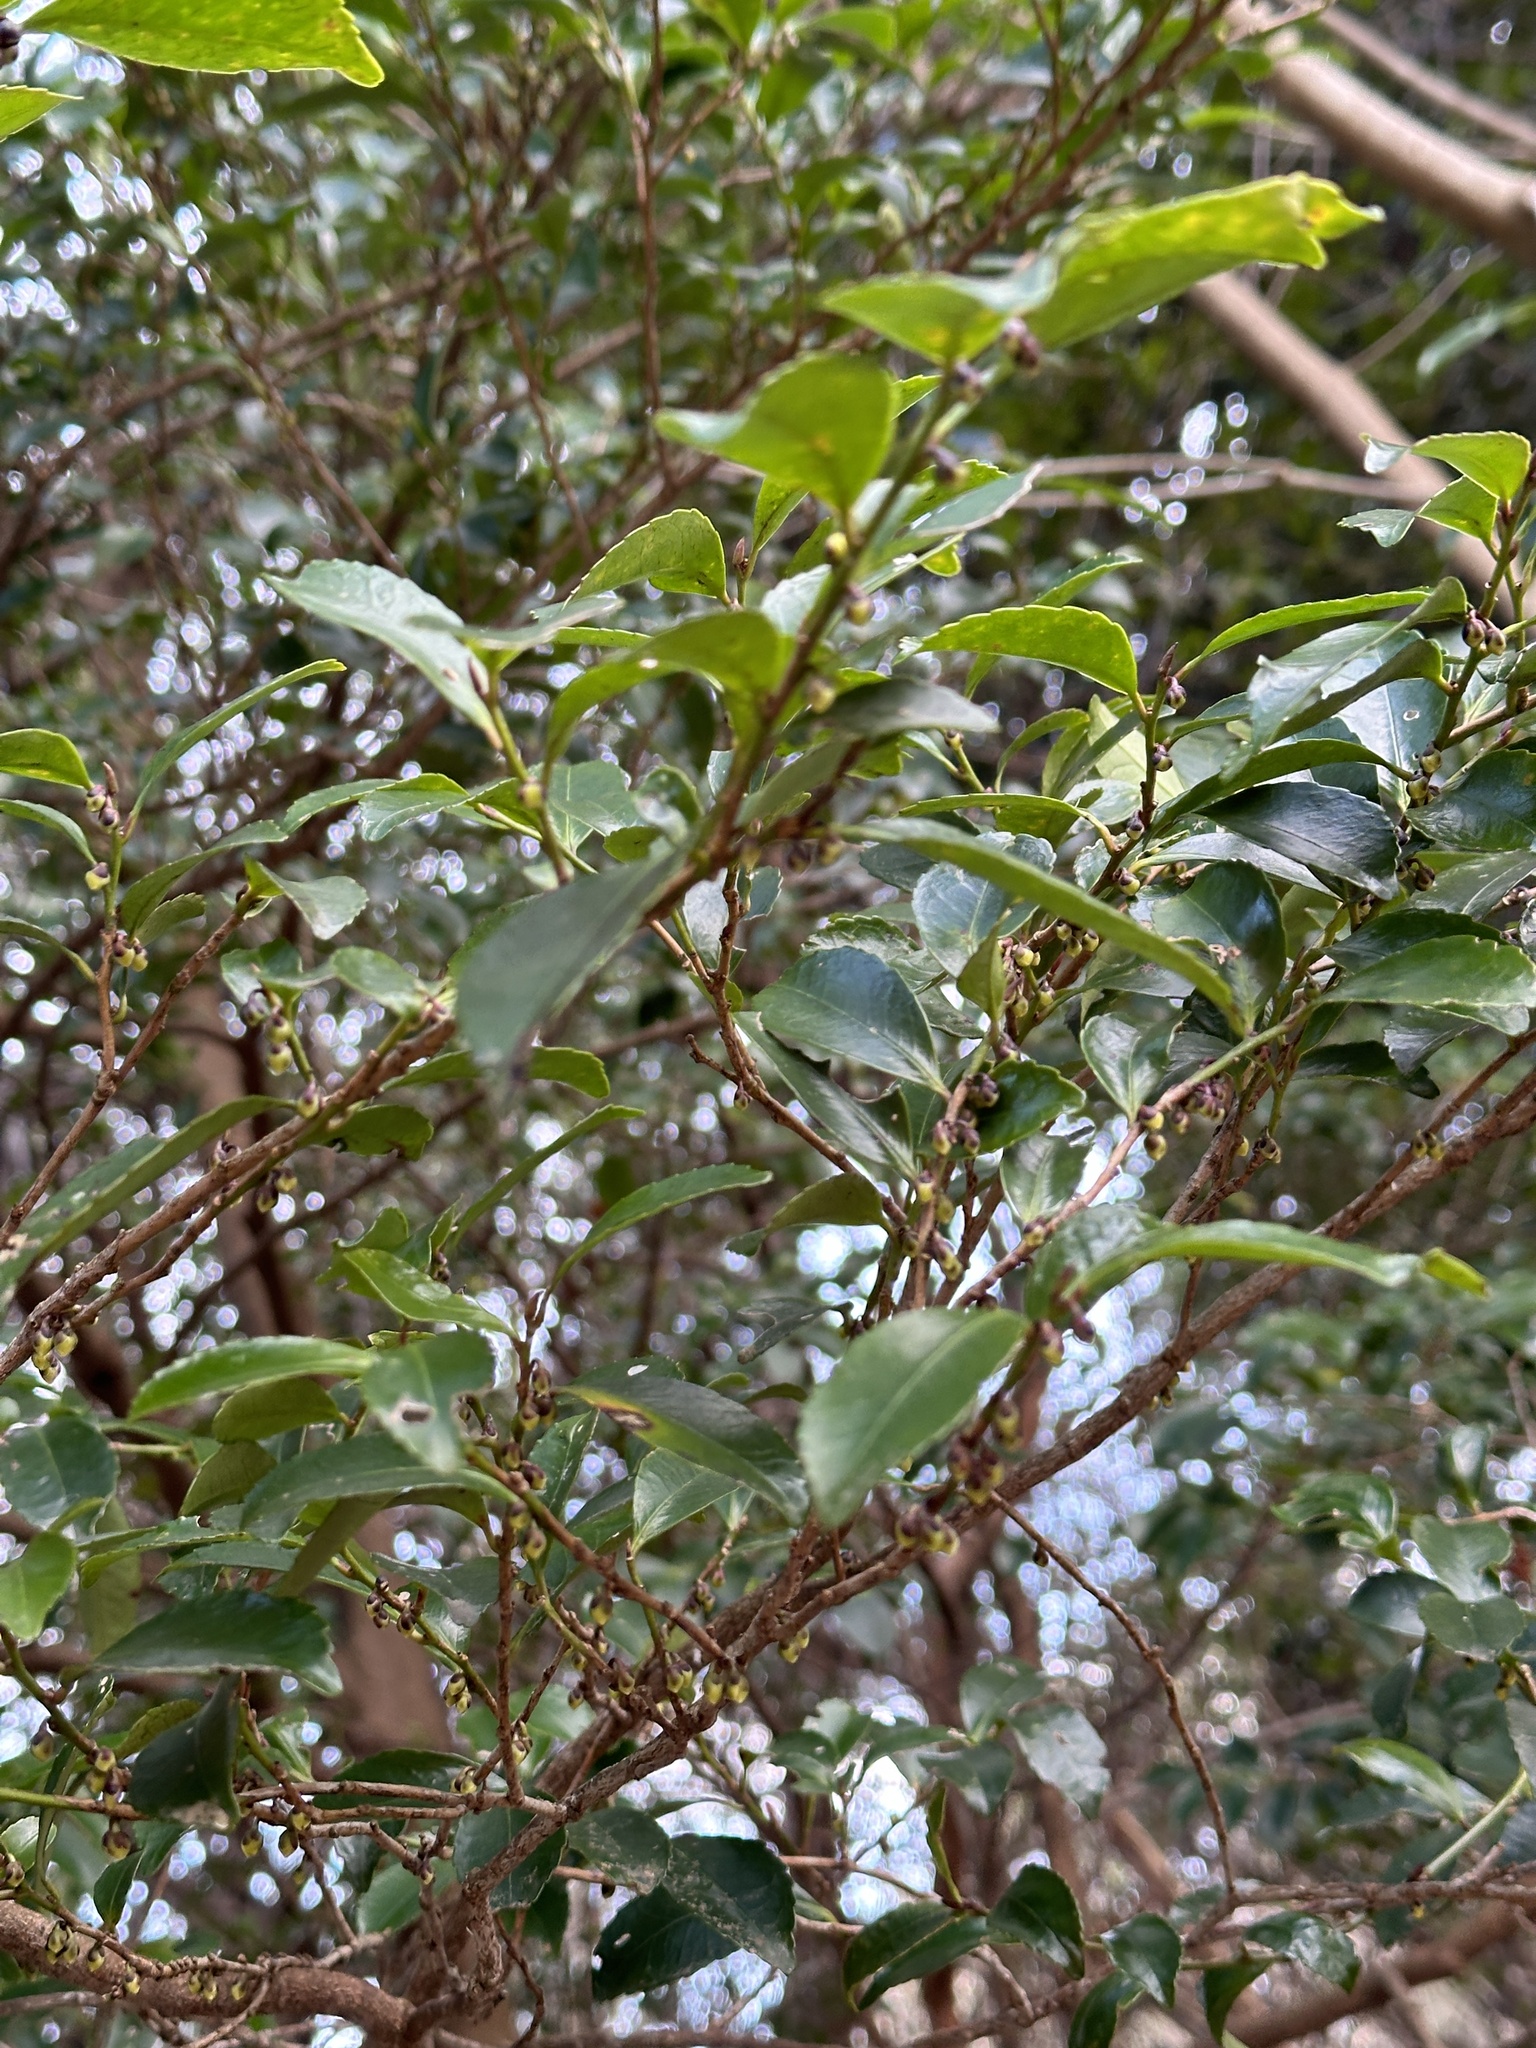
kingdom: Plantae
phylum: Tracheophyta
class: Magnoliopsida
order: Ericales
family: Pentaphylacaceae
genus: Eurya
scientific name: Eurya japonica
